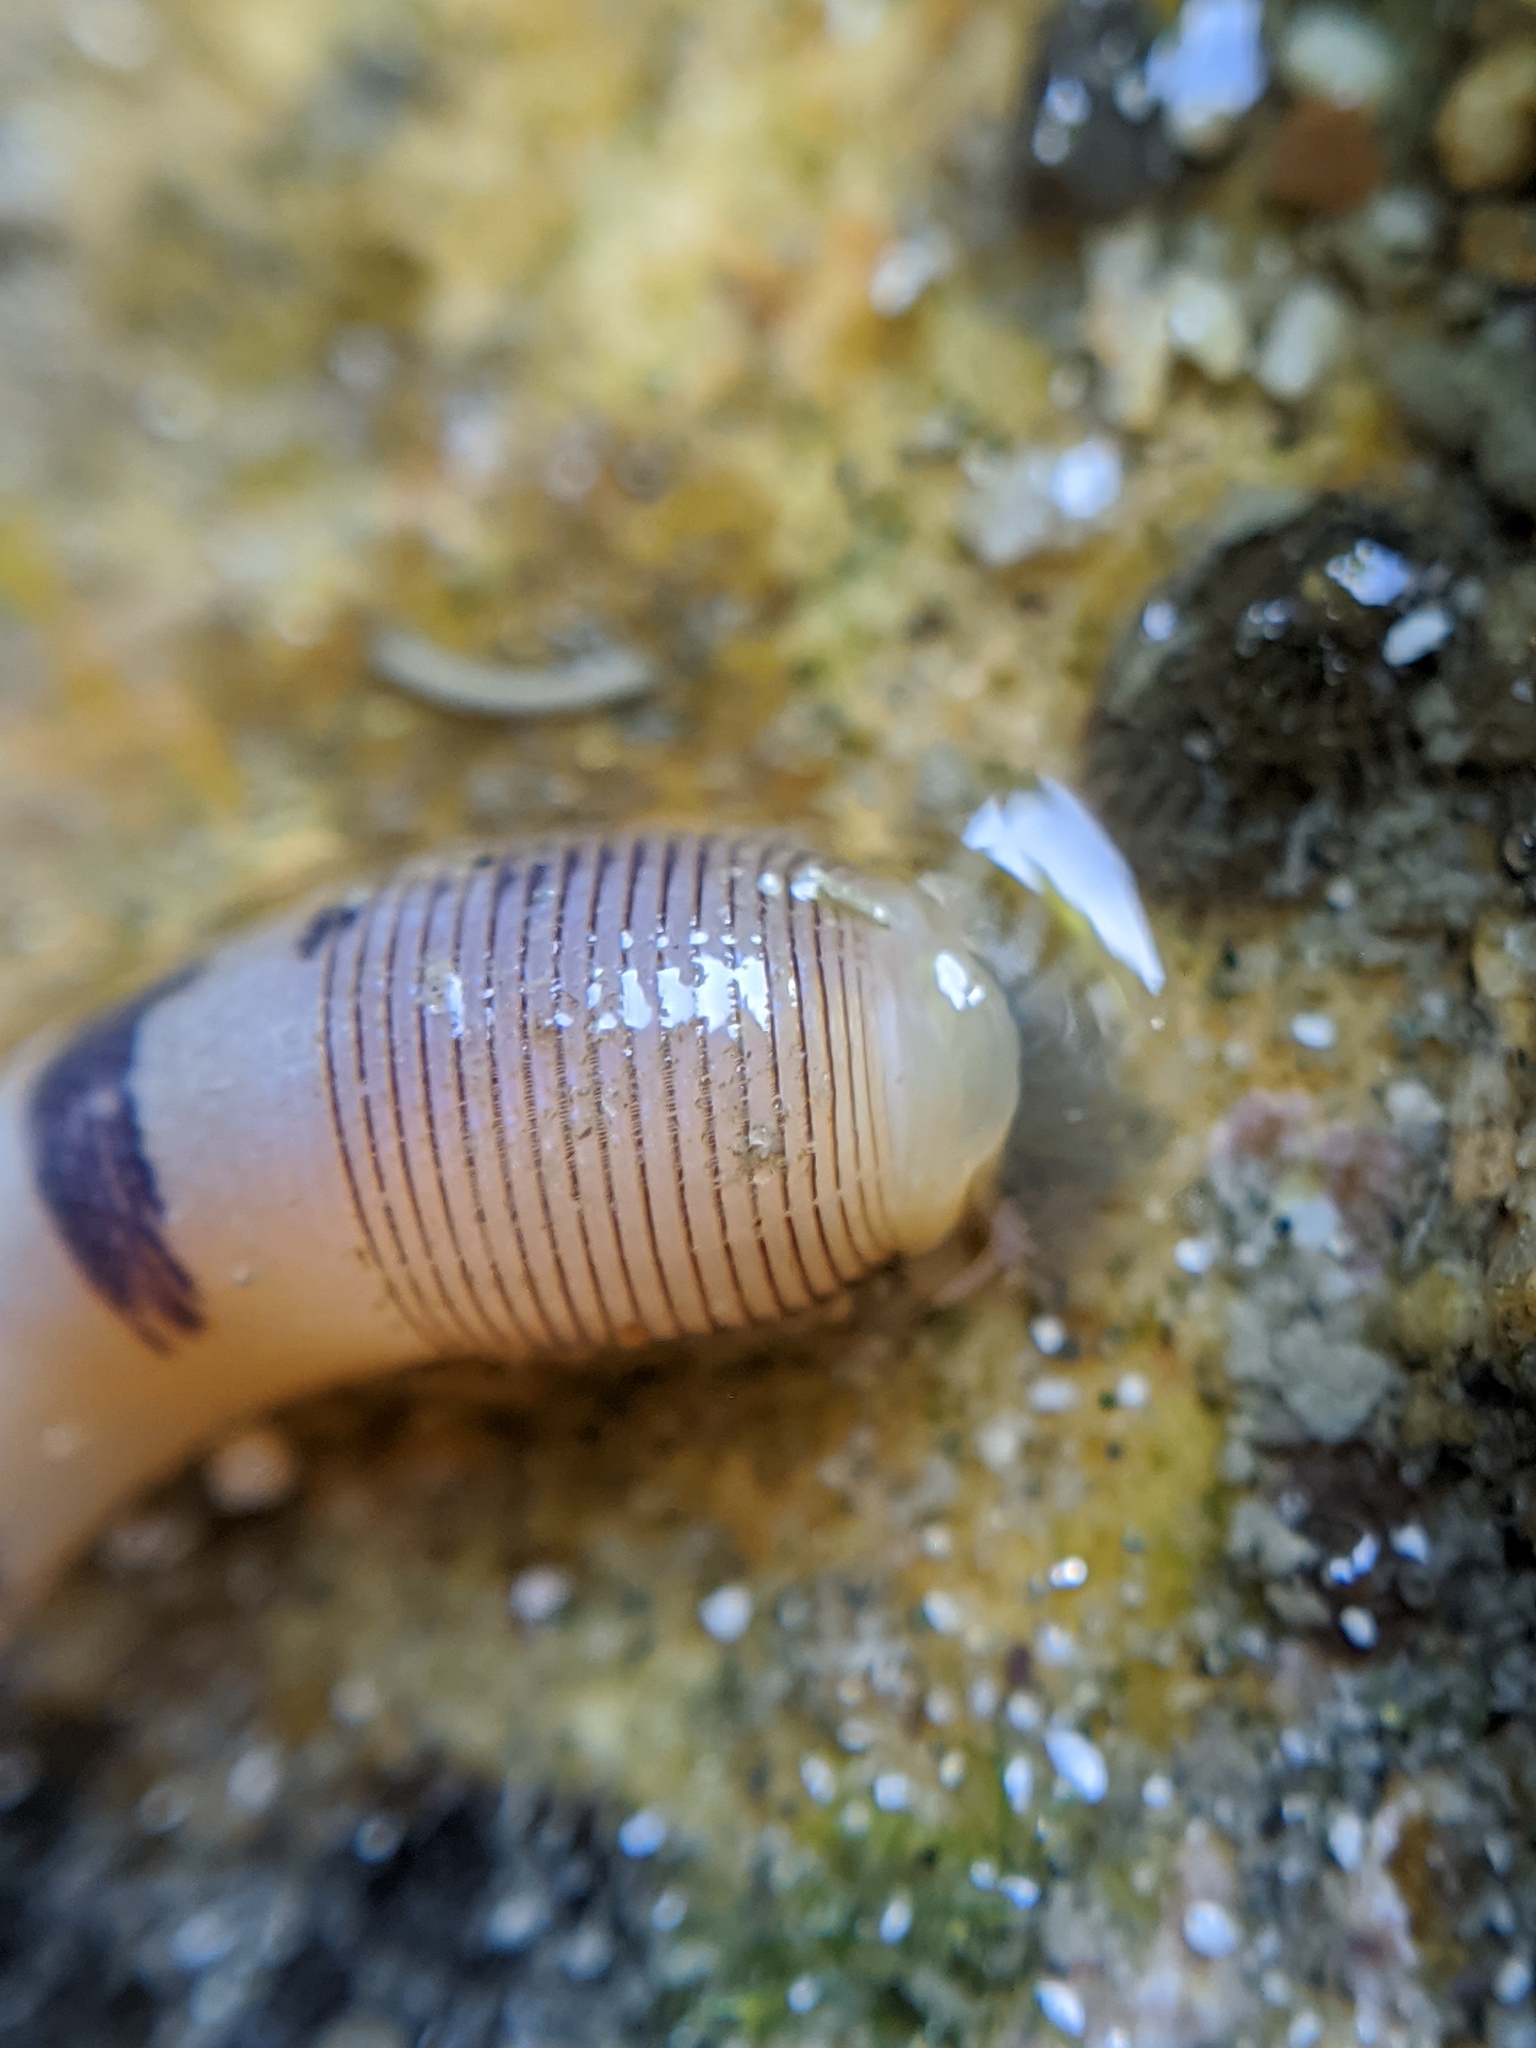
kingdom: Animalia
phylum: Sipuncula
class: Phascolosomatidea
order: Phascolosomatiformes
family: Phascolosomatidae
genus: Phascolosoma
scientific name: Phascolosoma agassizii
